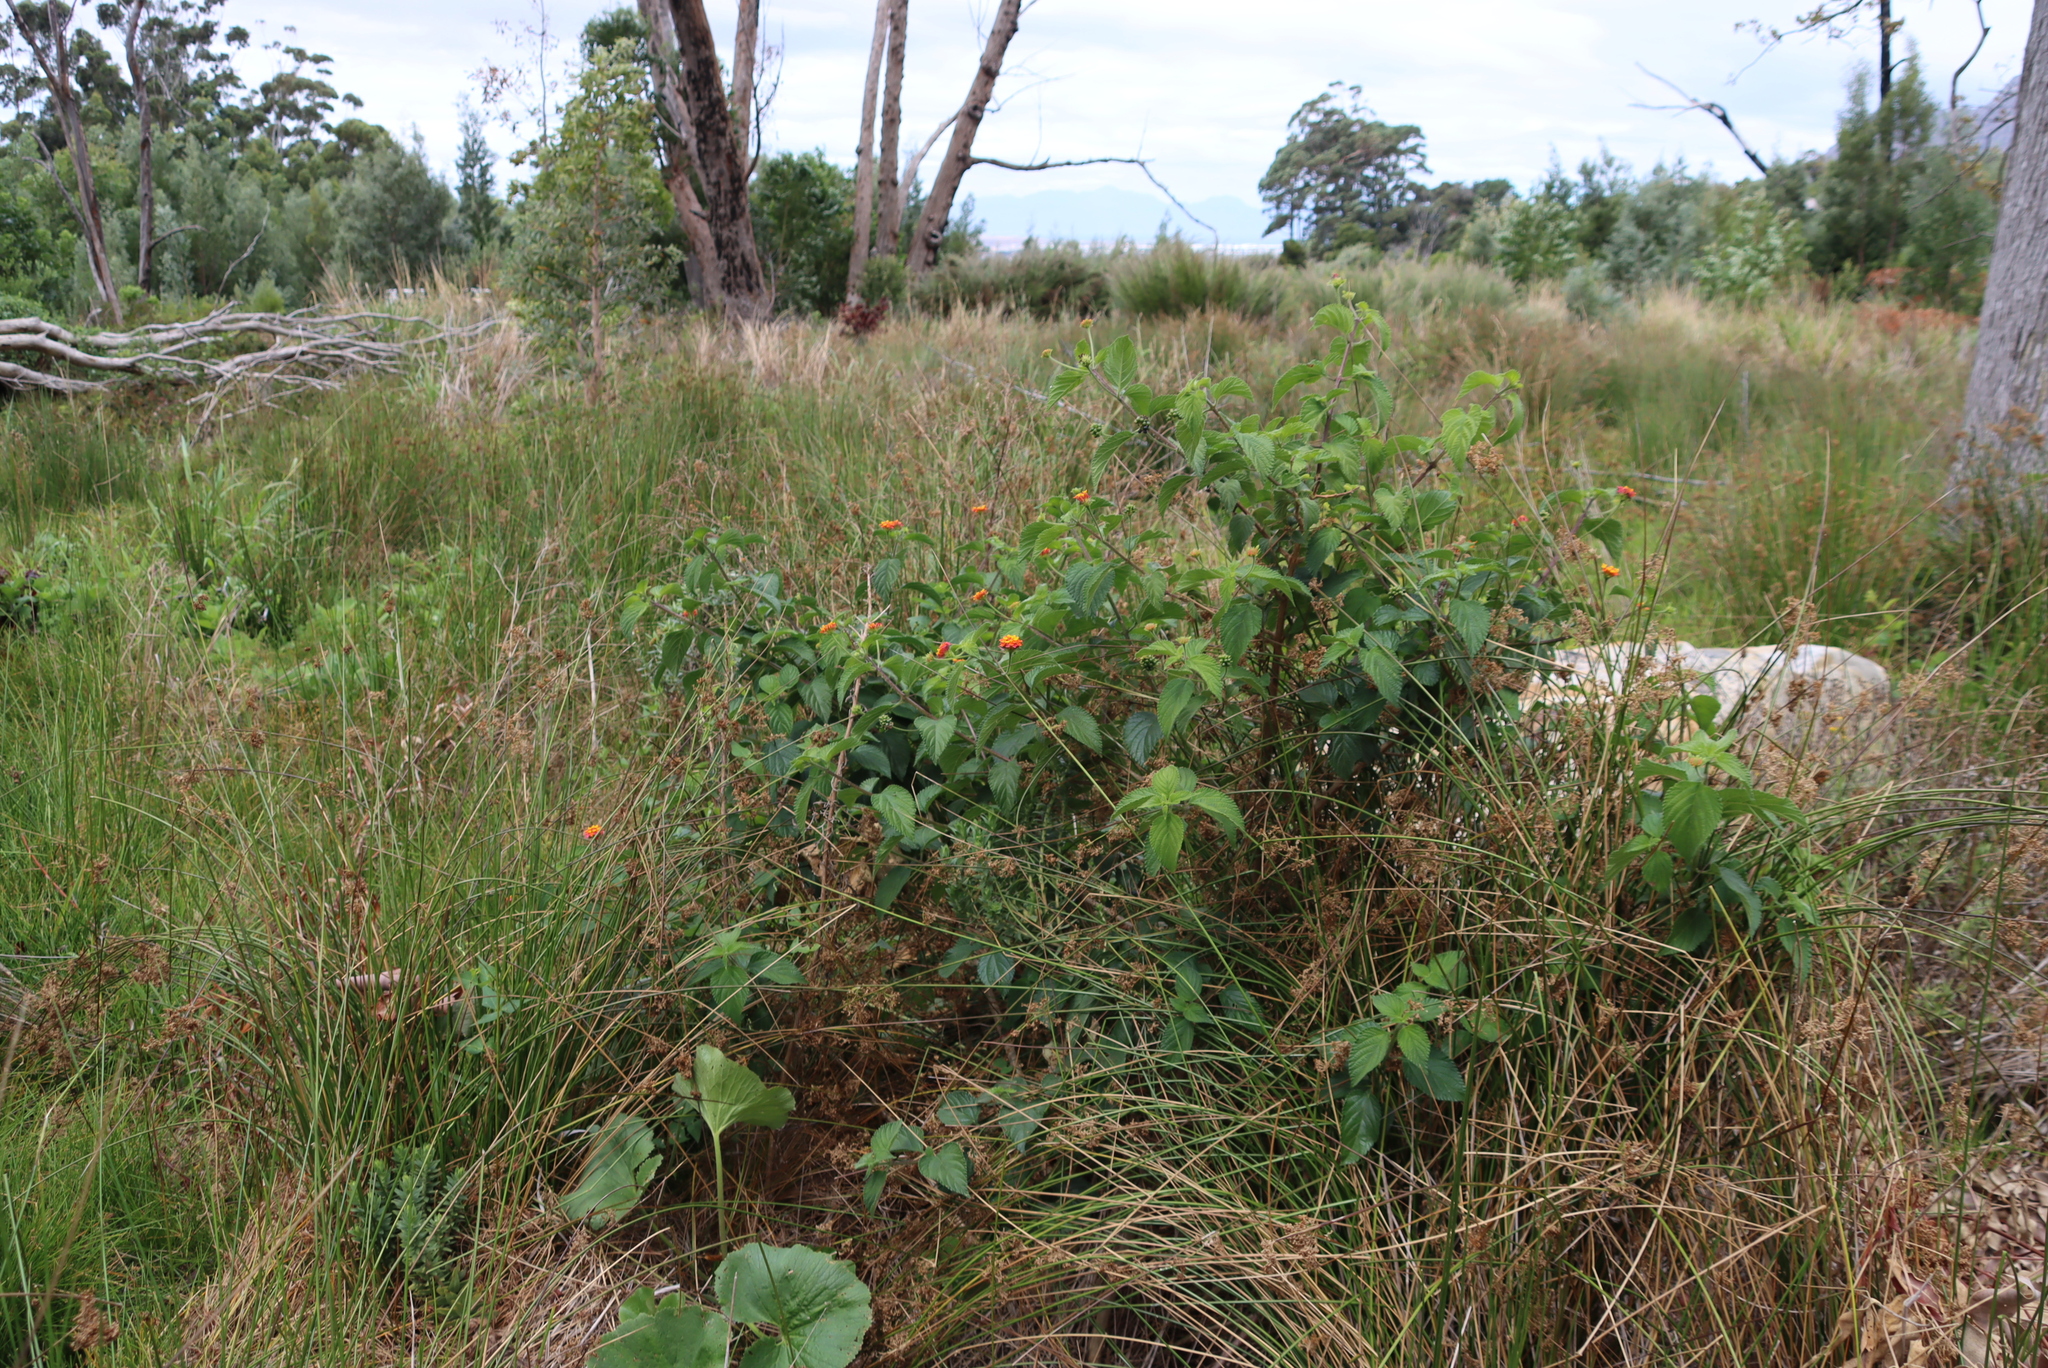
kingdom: Plantae
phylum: Tracheophyta
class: Magnoliopsida
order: Lamiales
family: Verbenaceae
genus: Lantana
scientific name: Lantana camara
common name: Lantana
